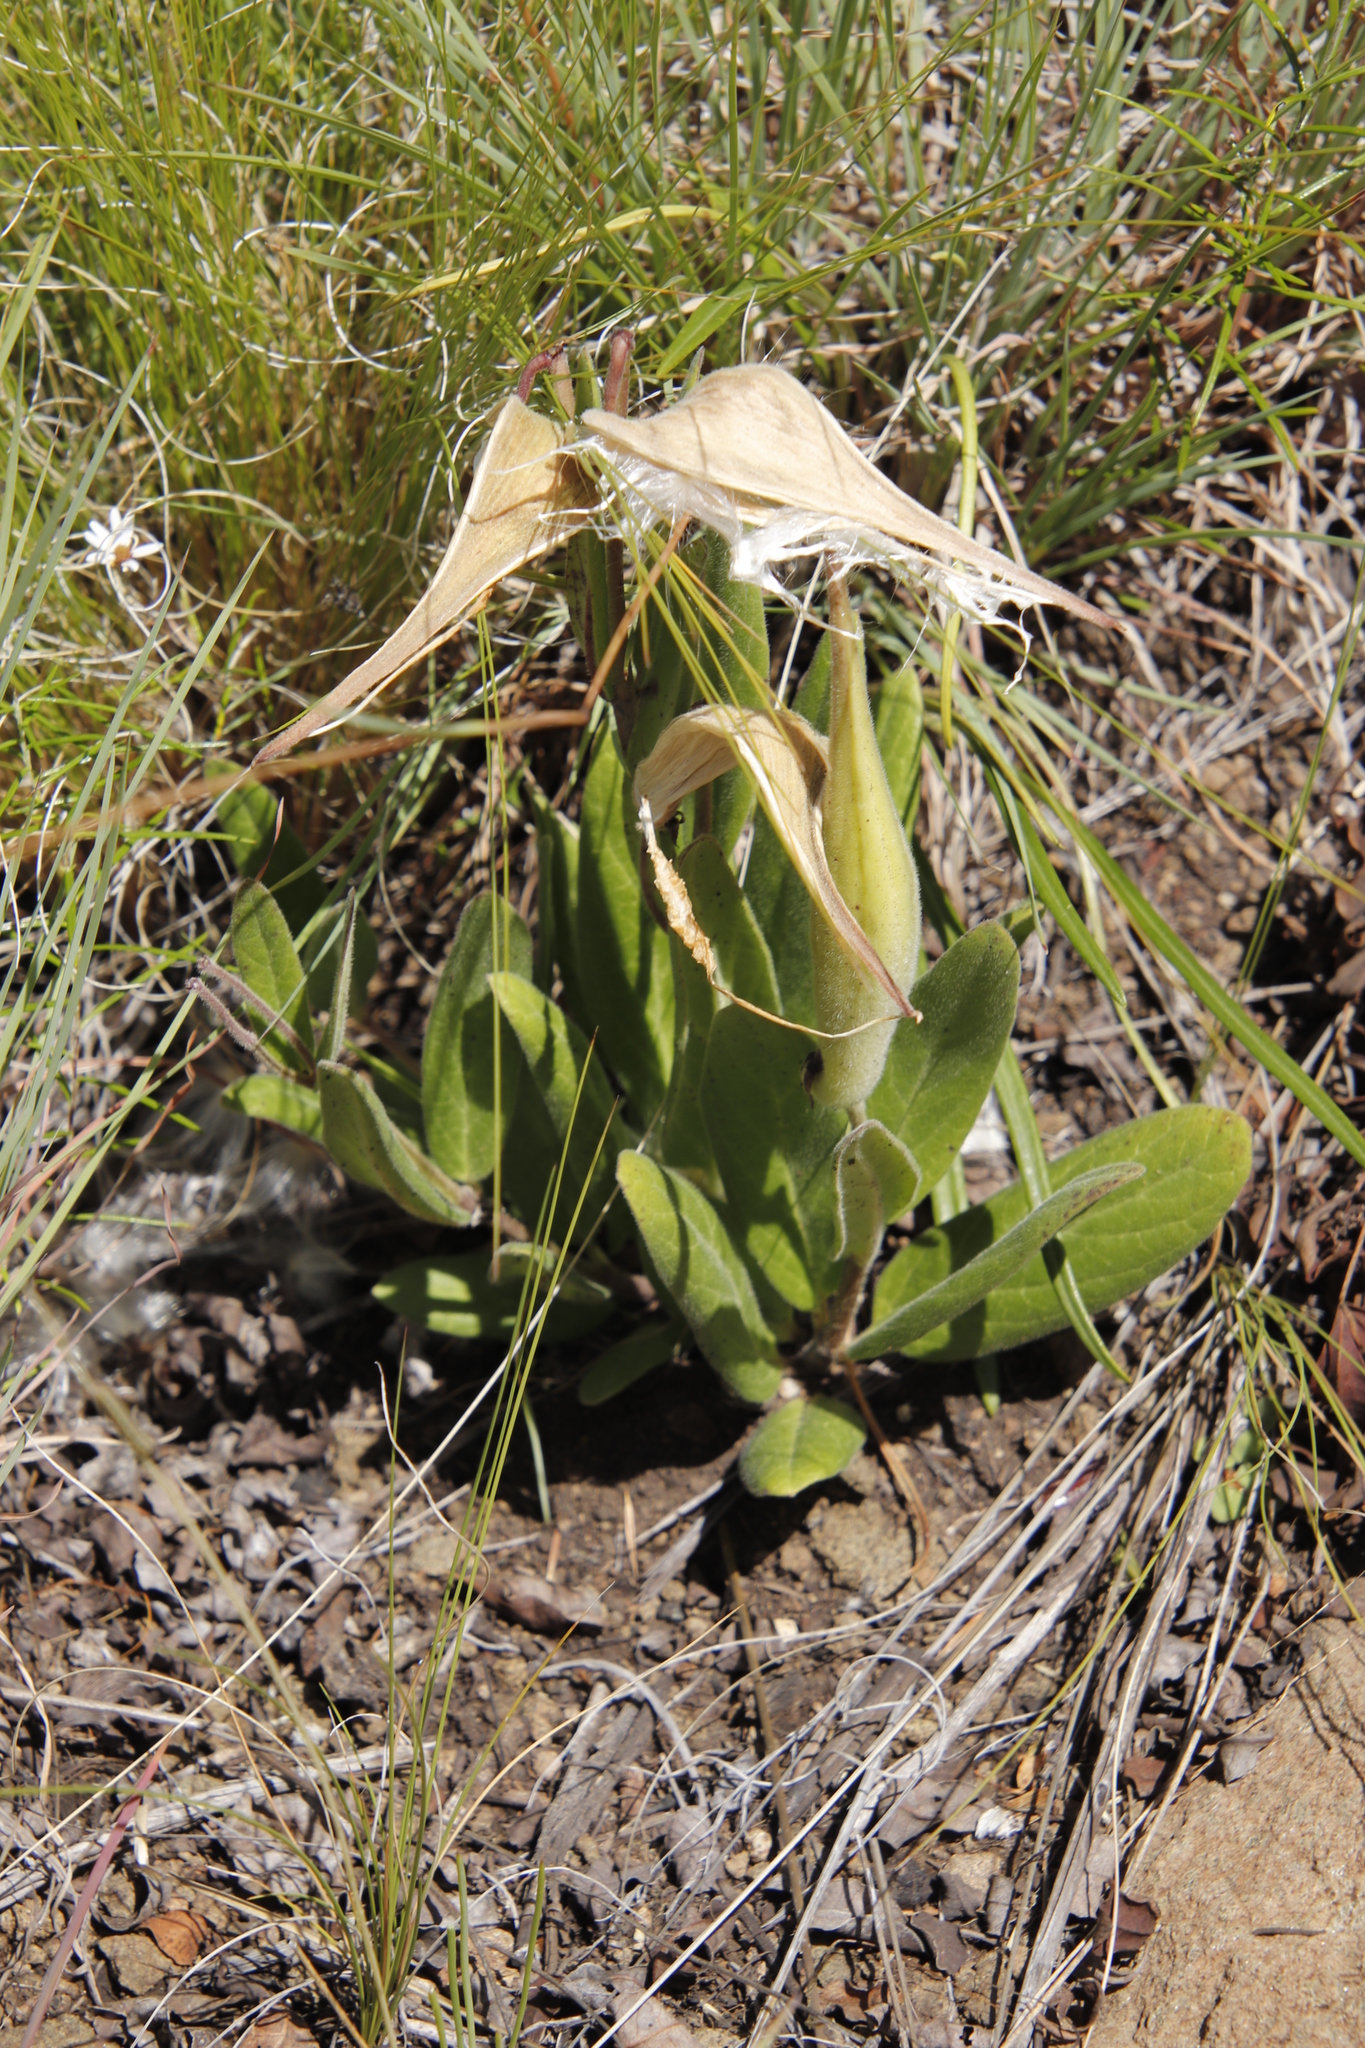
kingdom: Plantae
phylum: Tracheophyta
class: Magnoliopsida
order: Gentianales
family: Apocynaceae
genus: Asclepias
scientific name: Asclepias humilis
